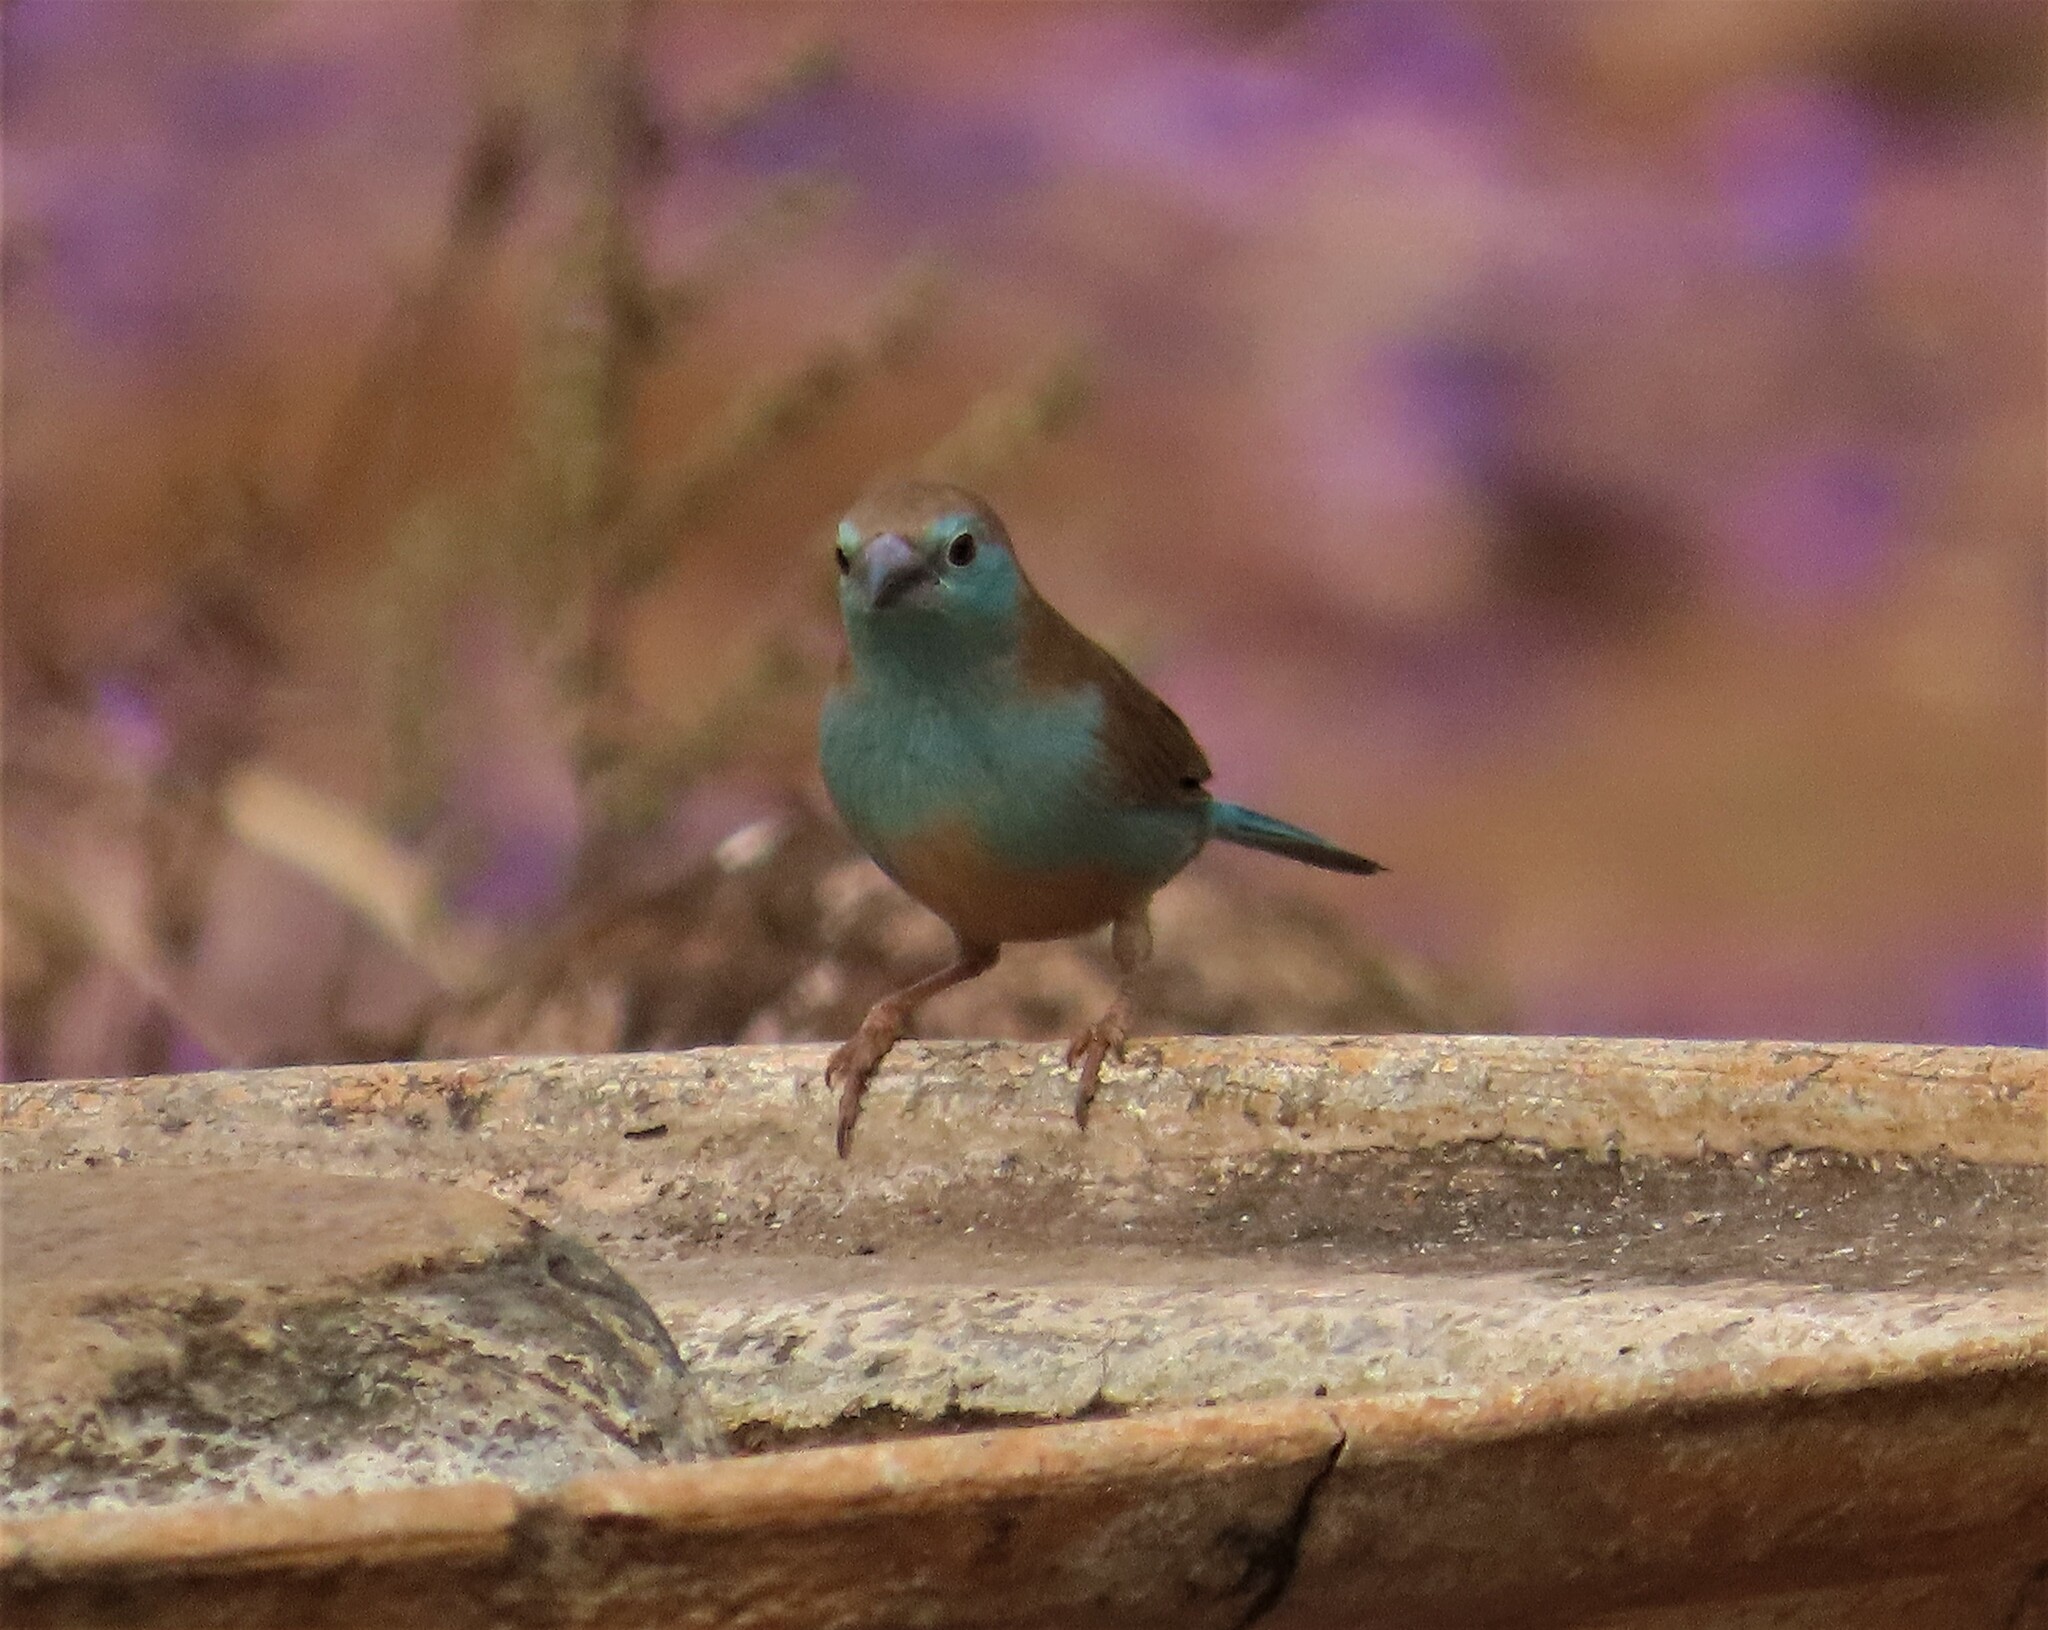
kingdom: Animalia
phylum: Chordata
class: Aves
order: Passeriformes
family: Estrildidae
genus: Uraeginthus
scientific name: Uraeginthus angolensis
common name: Blue waxbill
